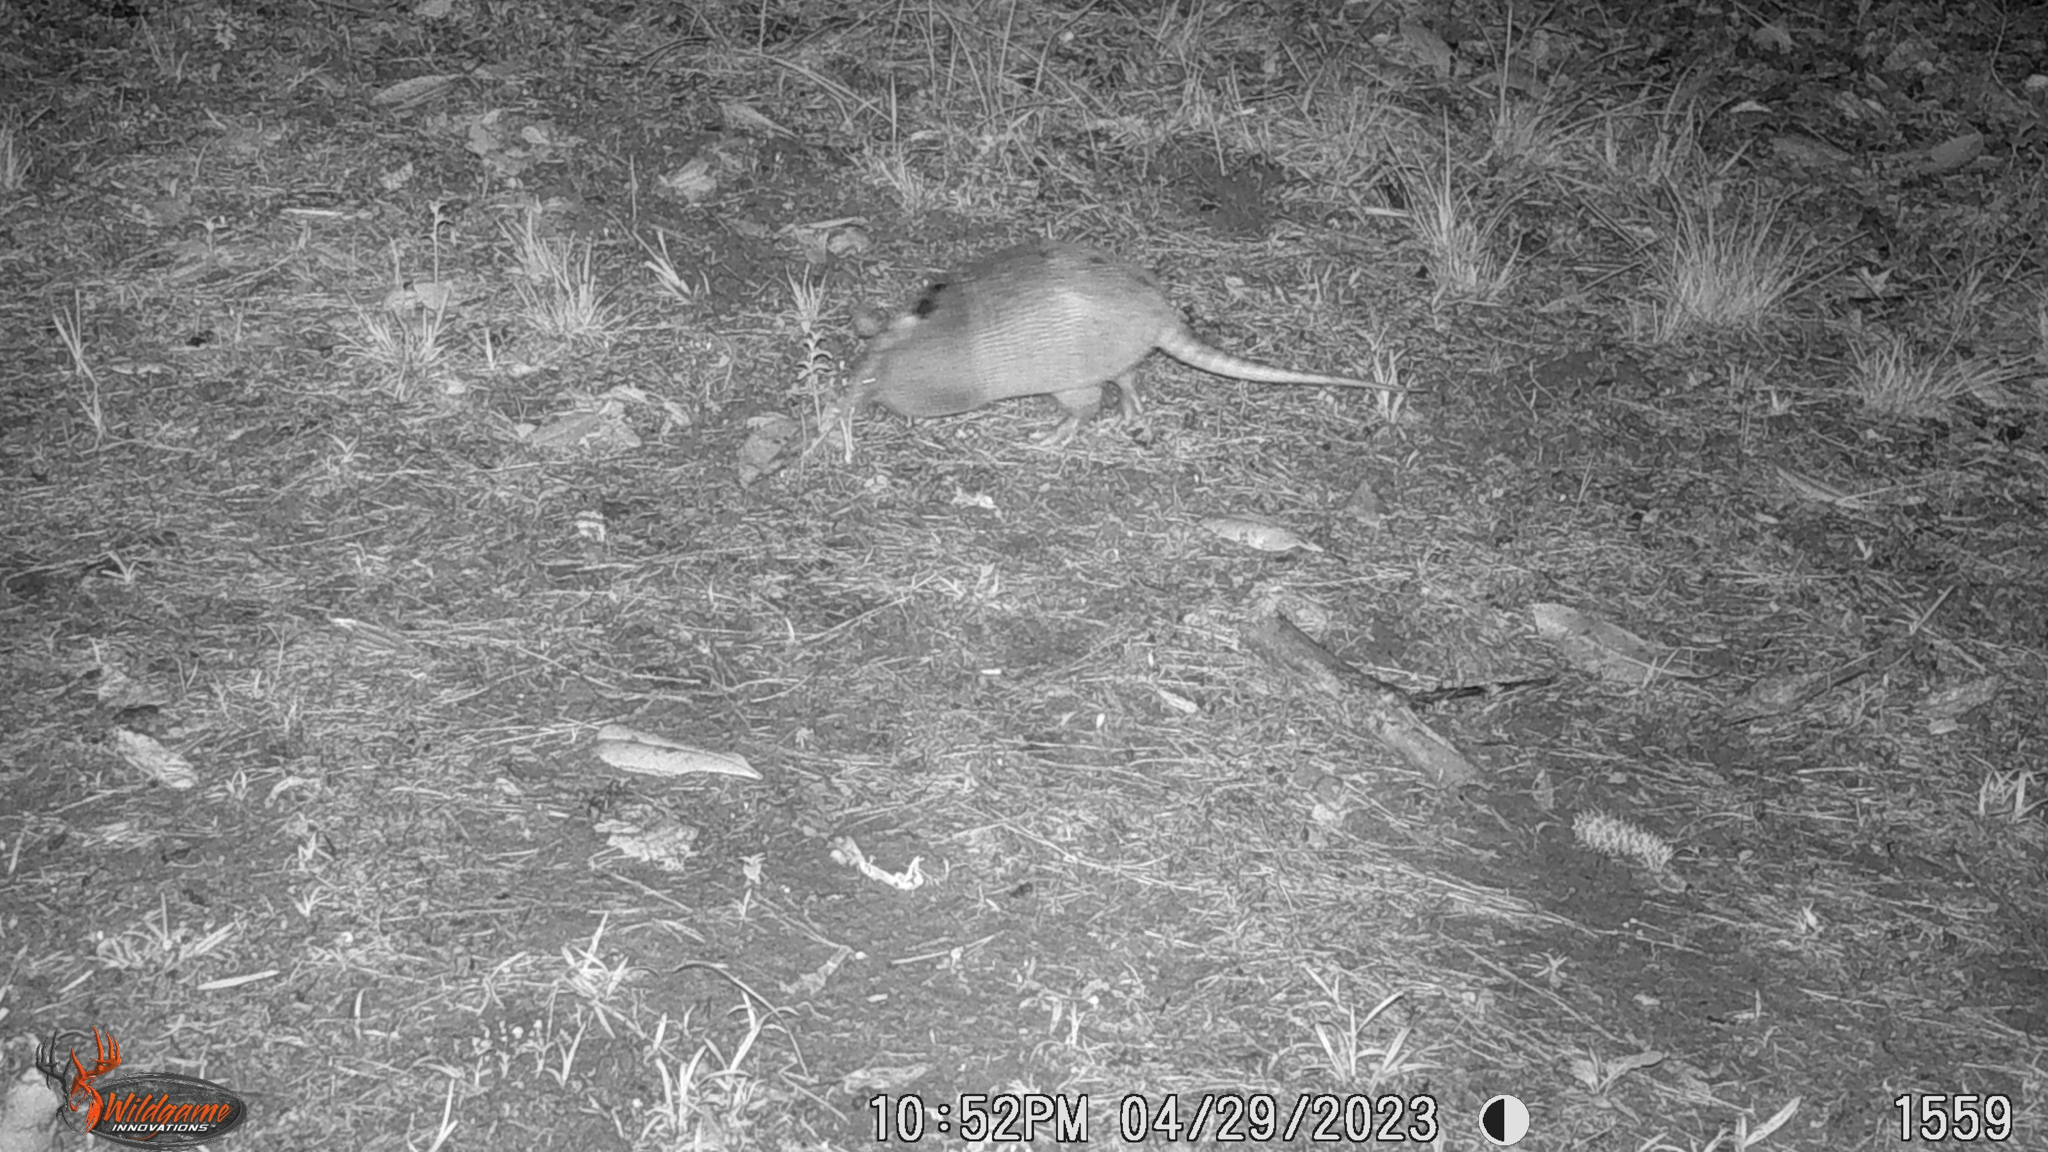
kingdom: Animalia
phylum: Chordata
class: Mammalia
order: Cingulata
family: Dasypodidae
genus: Dasypus
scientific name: Dasypus novemcinctus
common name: Nine-banded armadillo
